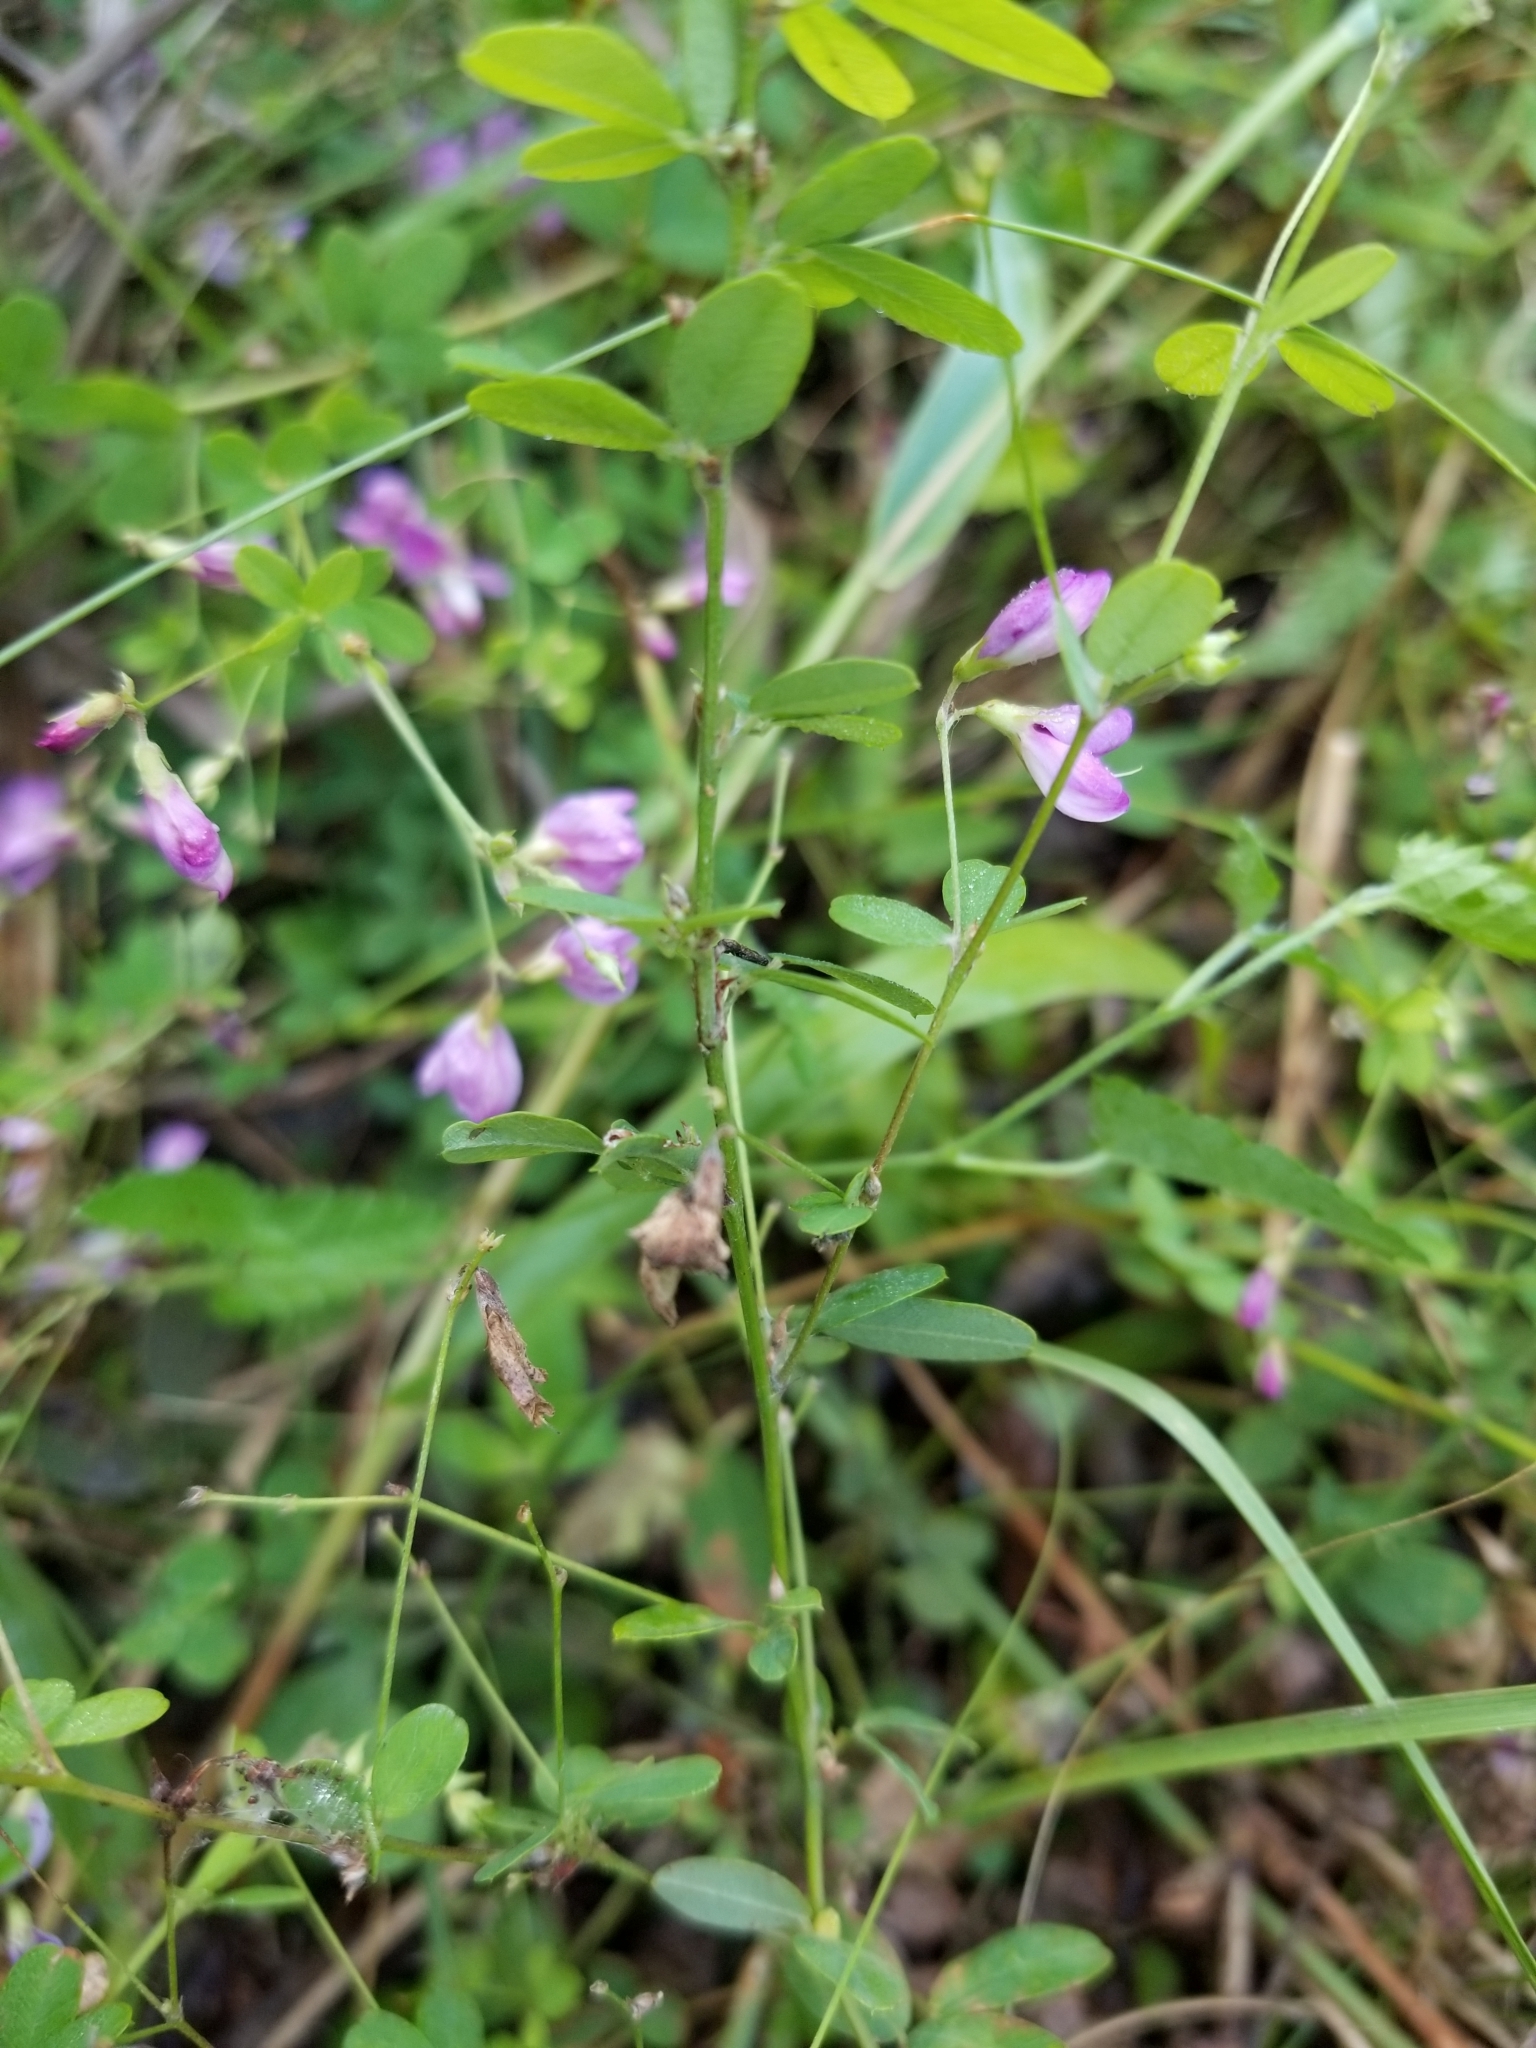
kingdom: Plantae
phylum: Tracheophyta
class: Magnoliopsida
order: Fabales
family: Fabaceae
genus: Lespedeza
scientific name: Lespedeza procumbens
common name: Downy trailing bush-clover
